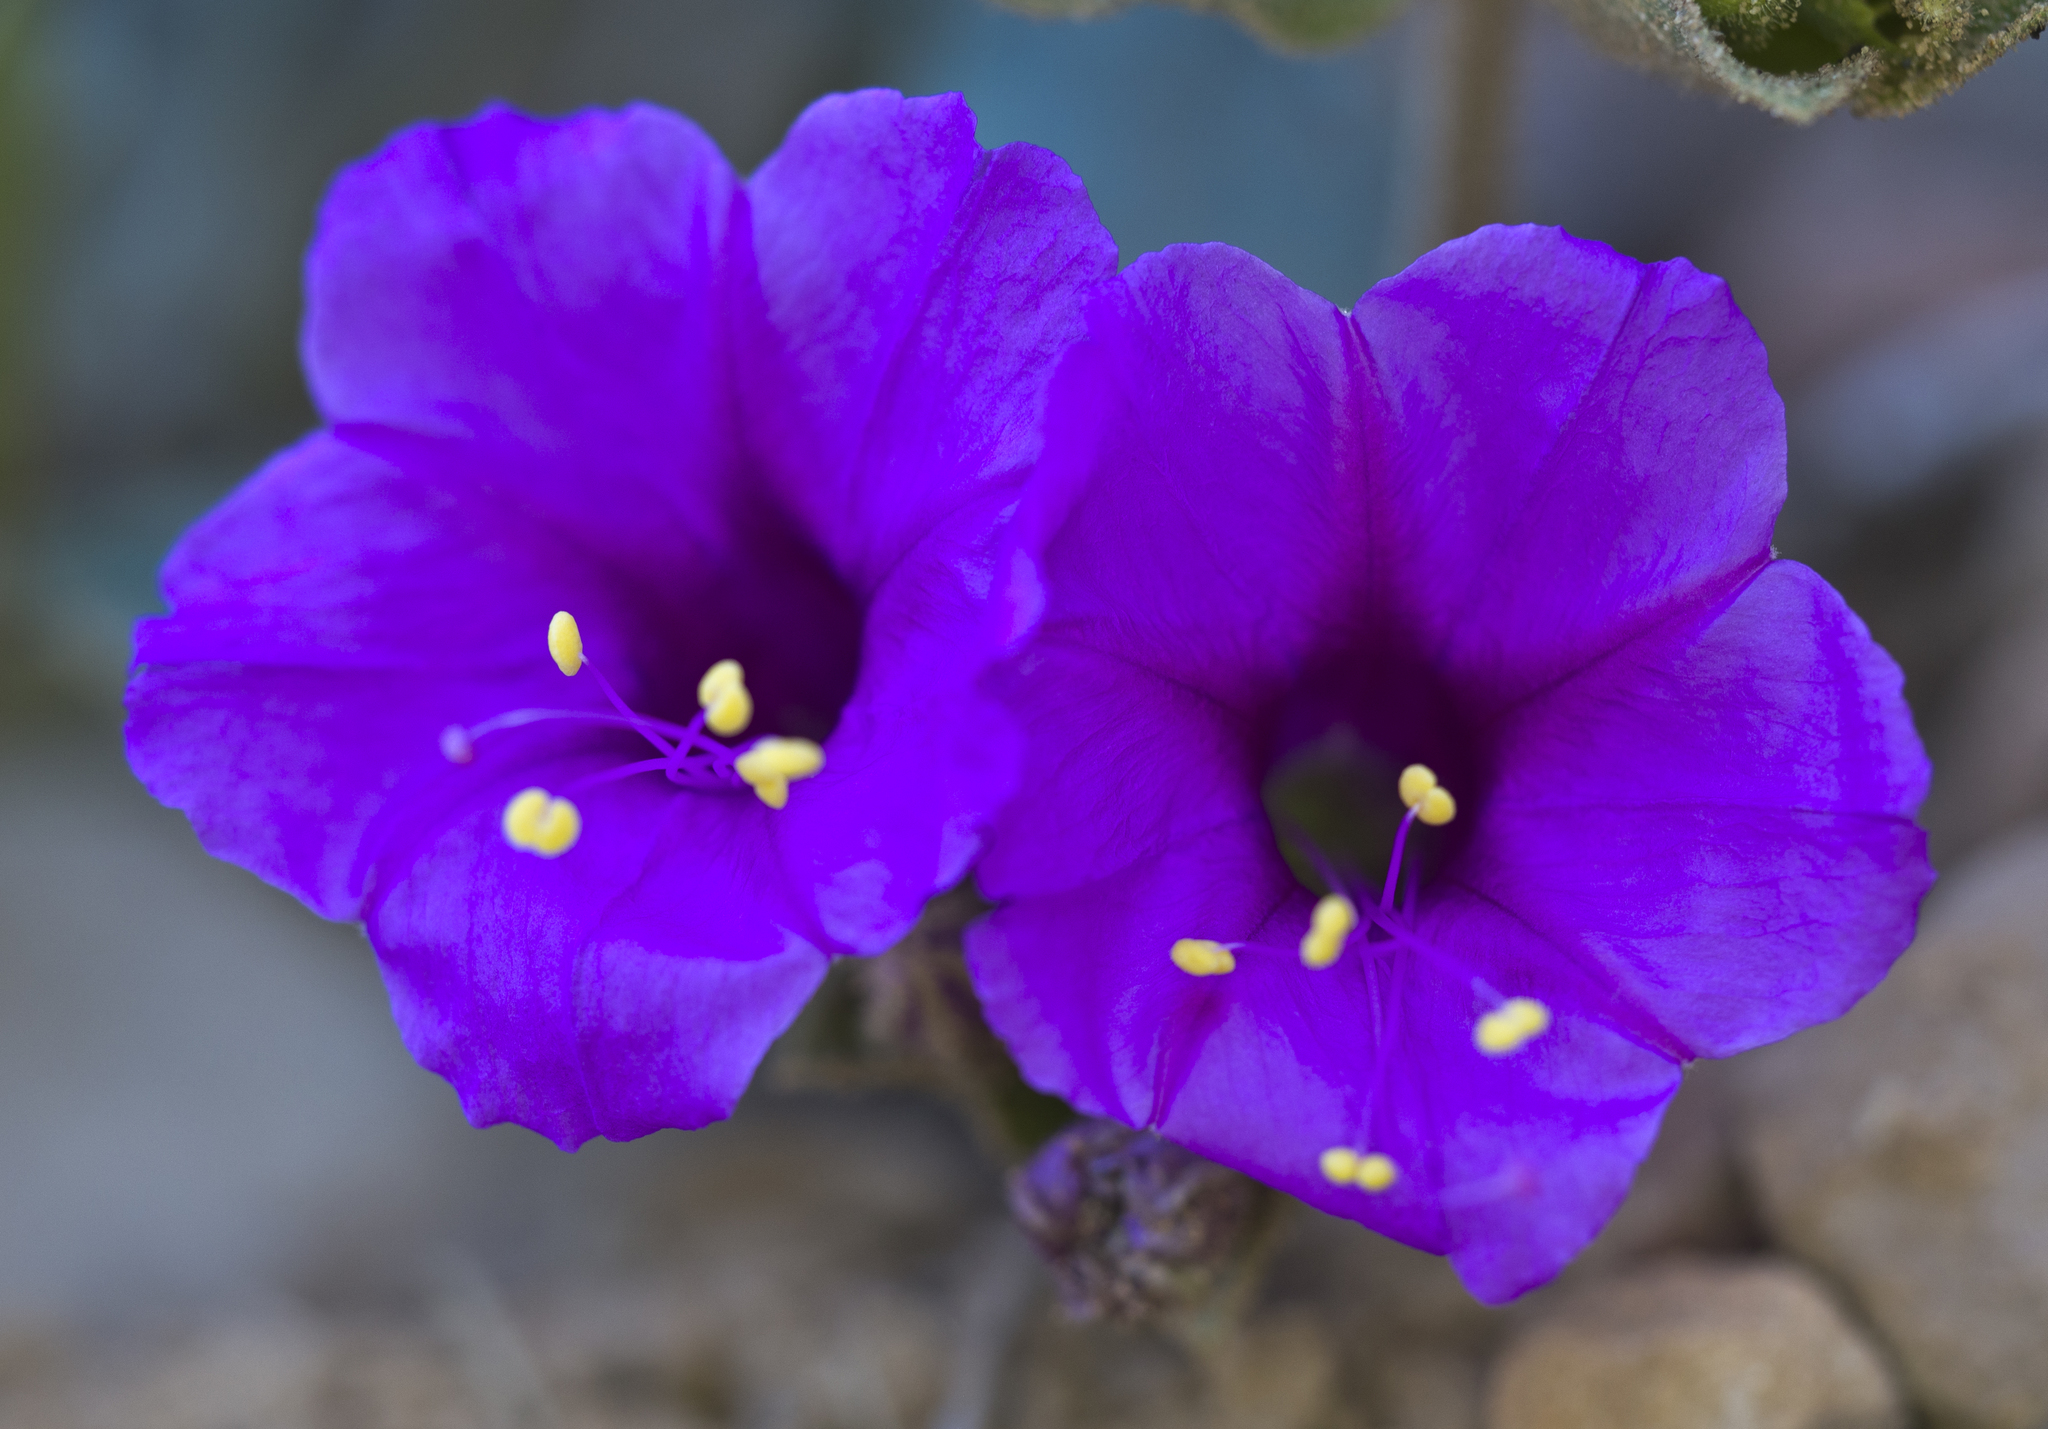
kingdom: Plantae
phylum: Tracheophyta
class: Magnoliopsida
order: Caryophyllales
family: Nyctaginaceae
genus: Mirabilis
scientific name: Mirabilis multiflora
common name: Froebel's four-o'clock
